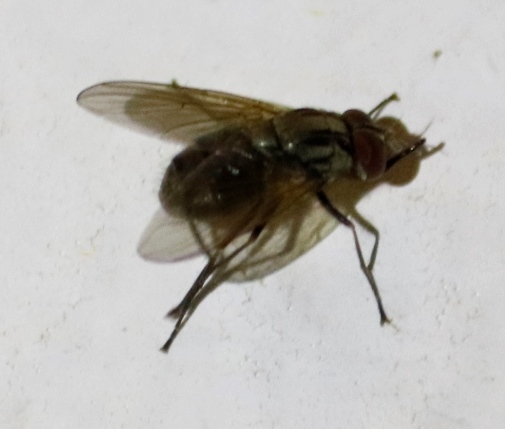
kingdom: Animalia
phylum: Arthropoda
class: Insecta
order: Diptera
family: Muscidae
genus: Stomoxys
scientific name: Stomoxys calcitrans
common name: Stable fly
